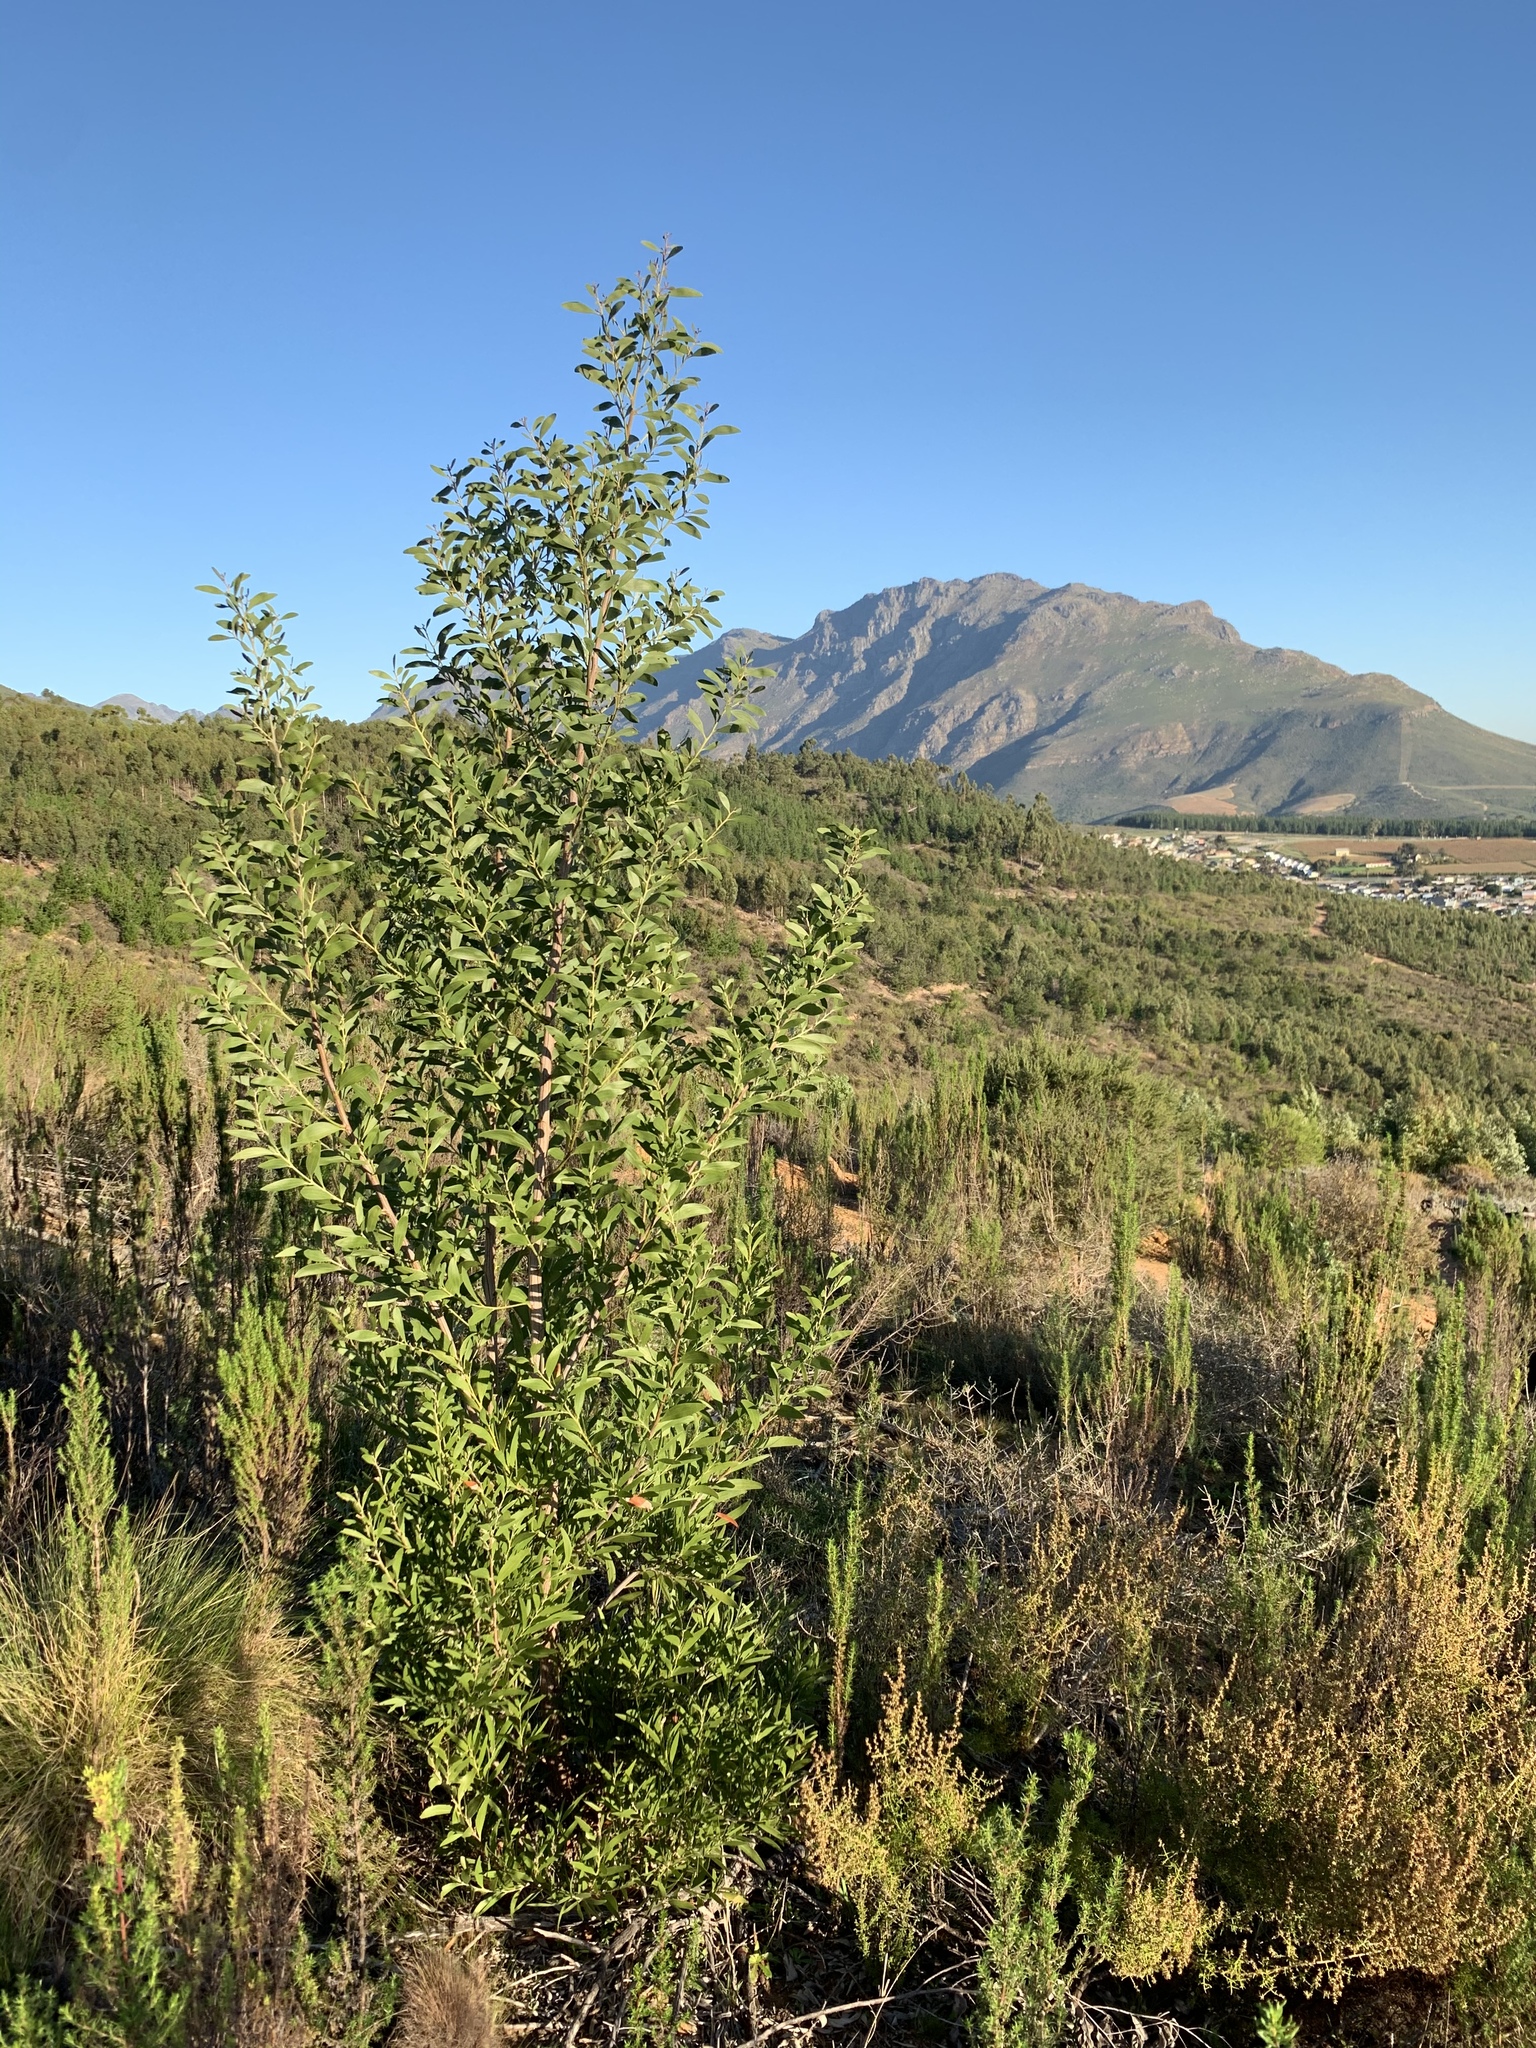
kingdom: Plantae
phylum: Tracheophyta
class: Magnoliopsida
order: Fabales
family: Fabaceae
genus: Acacia
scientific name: Acacia melanoxylon
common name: Blackwood
